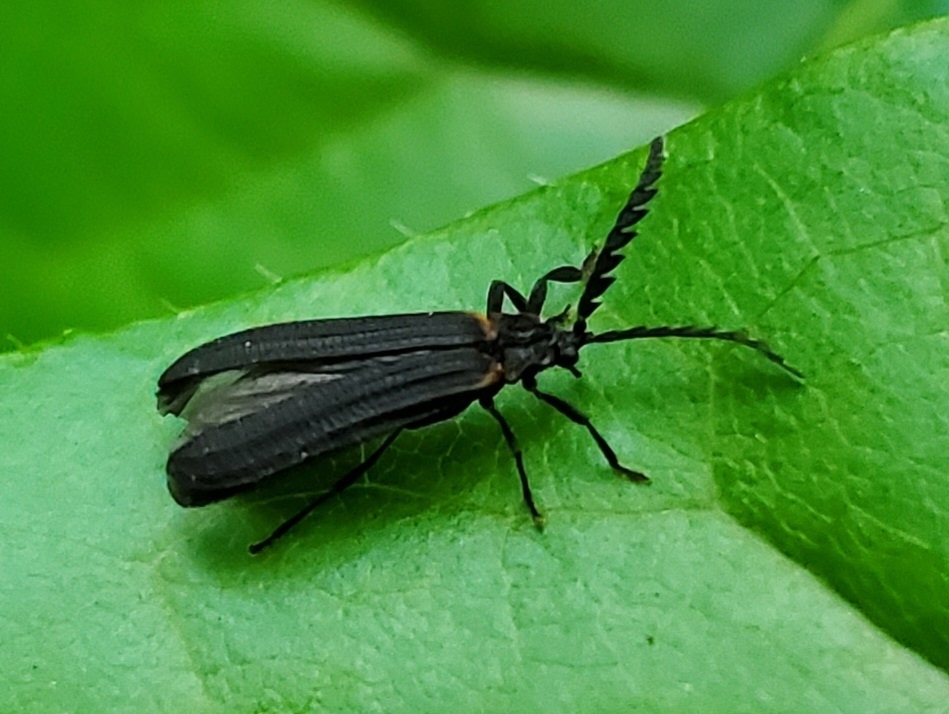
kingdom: Animalia
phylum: Arthropoda
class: Insecta
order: Coleoptera
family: Lycidae
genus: Leptoceletes
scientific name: Leptoceletes basalis
